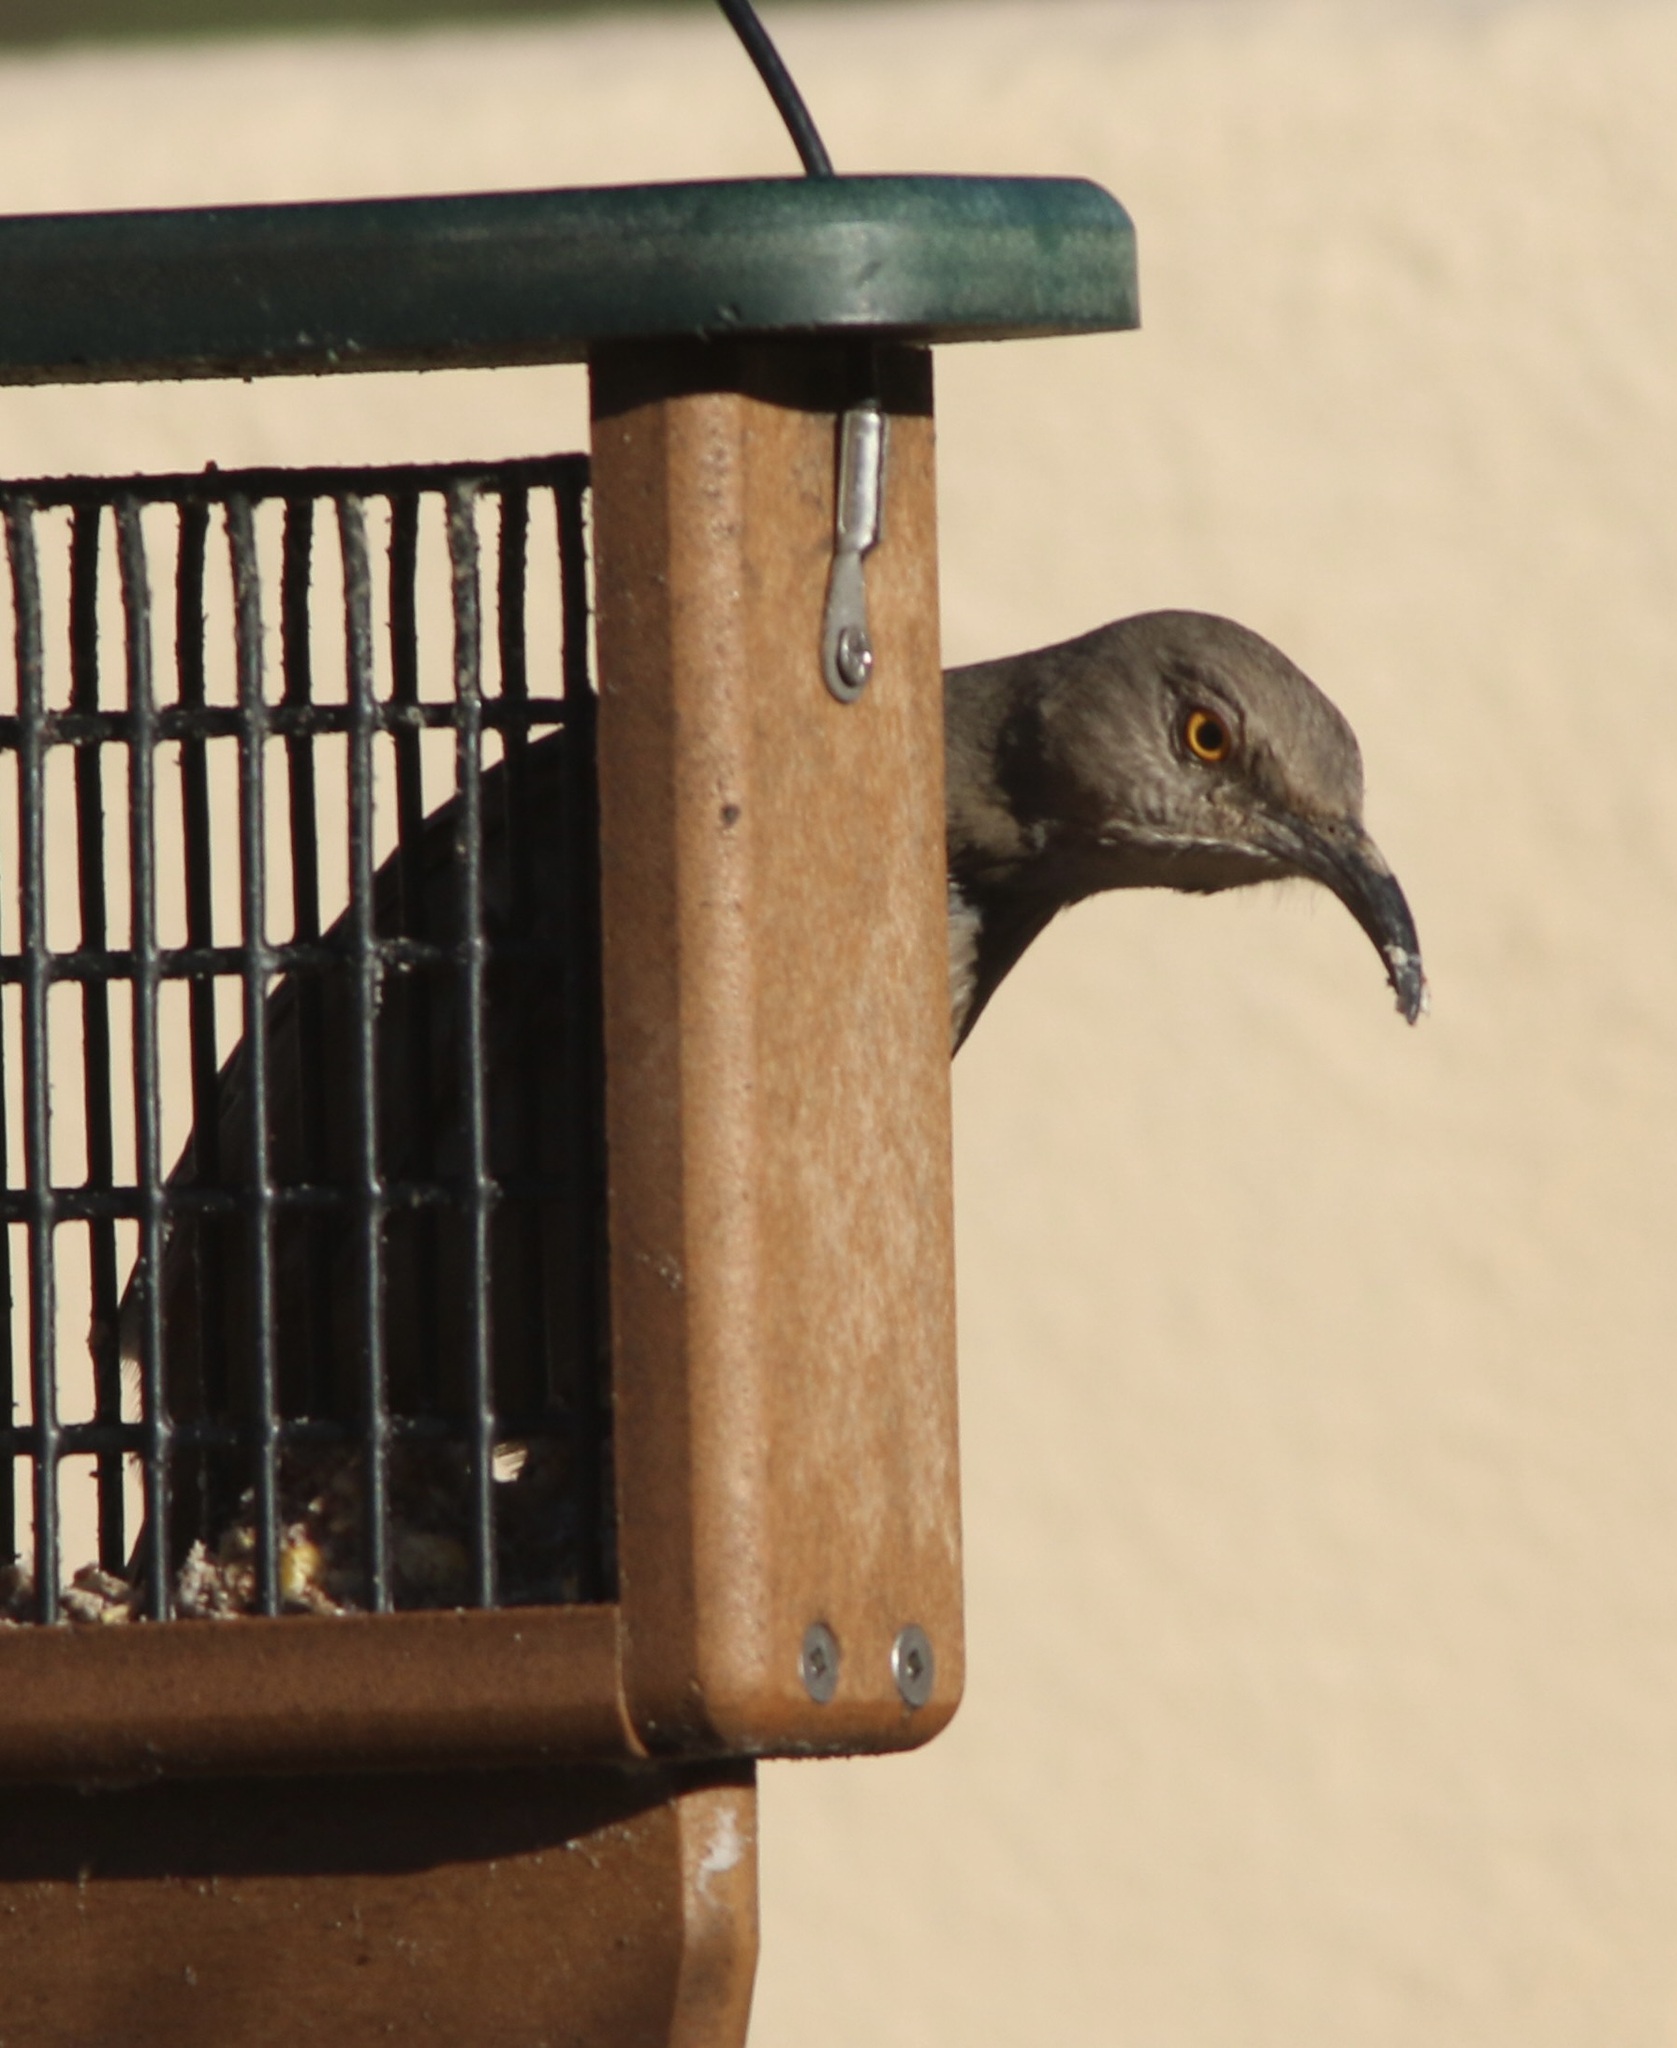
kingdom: Animalia
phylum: Chordata
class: Aves
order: Passeriformes
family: Mimidae
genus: Toxostoma
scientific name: Toxostoma curvirostre
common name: Curve-billed thrasher
